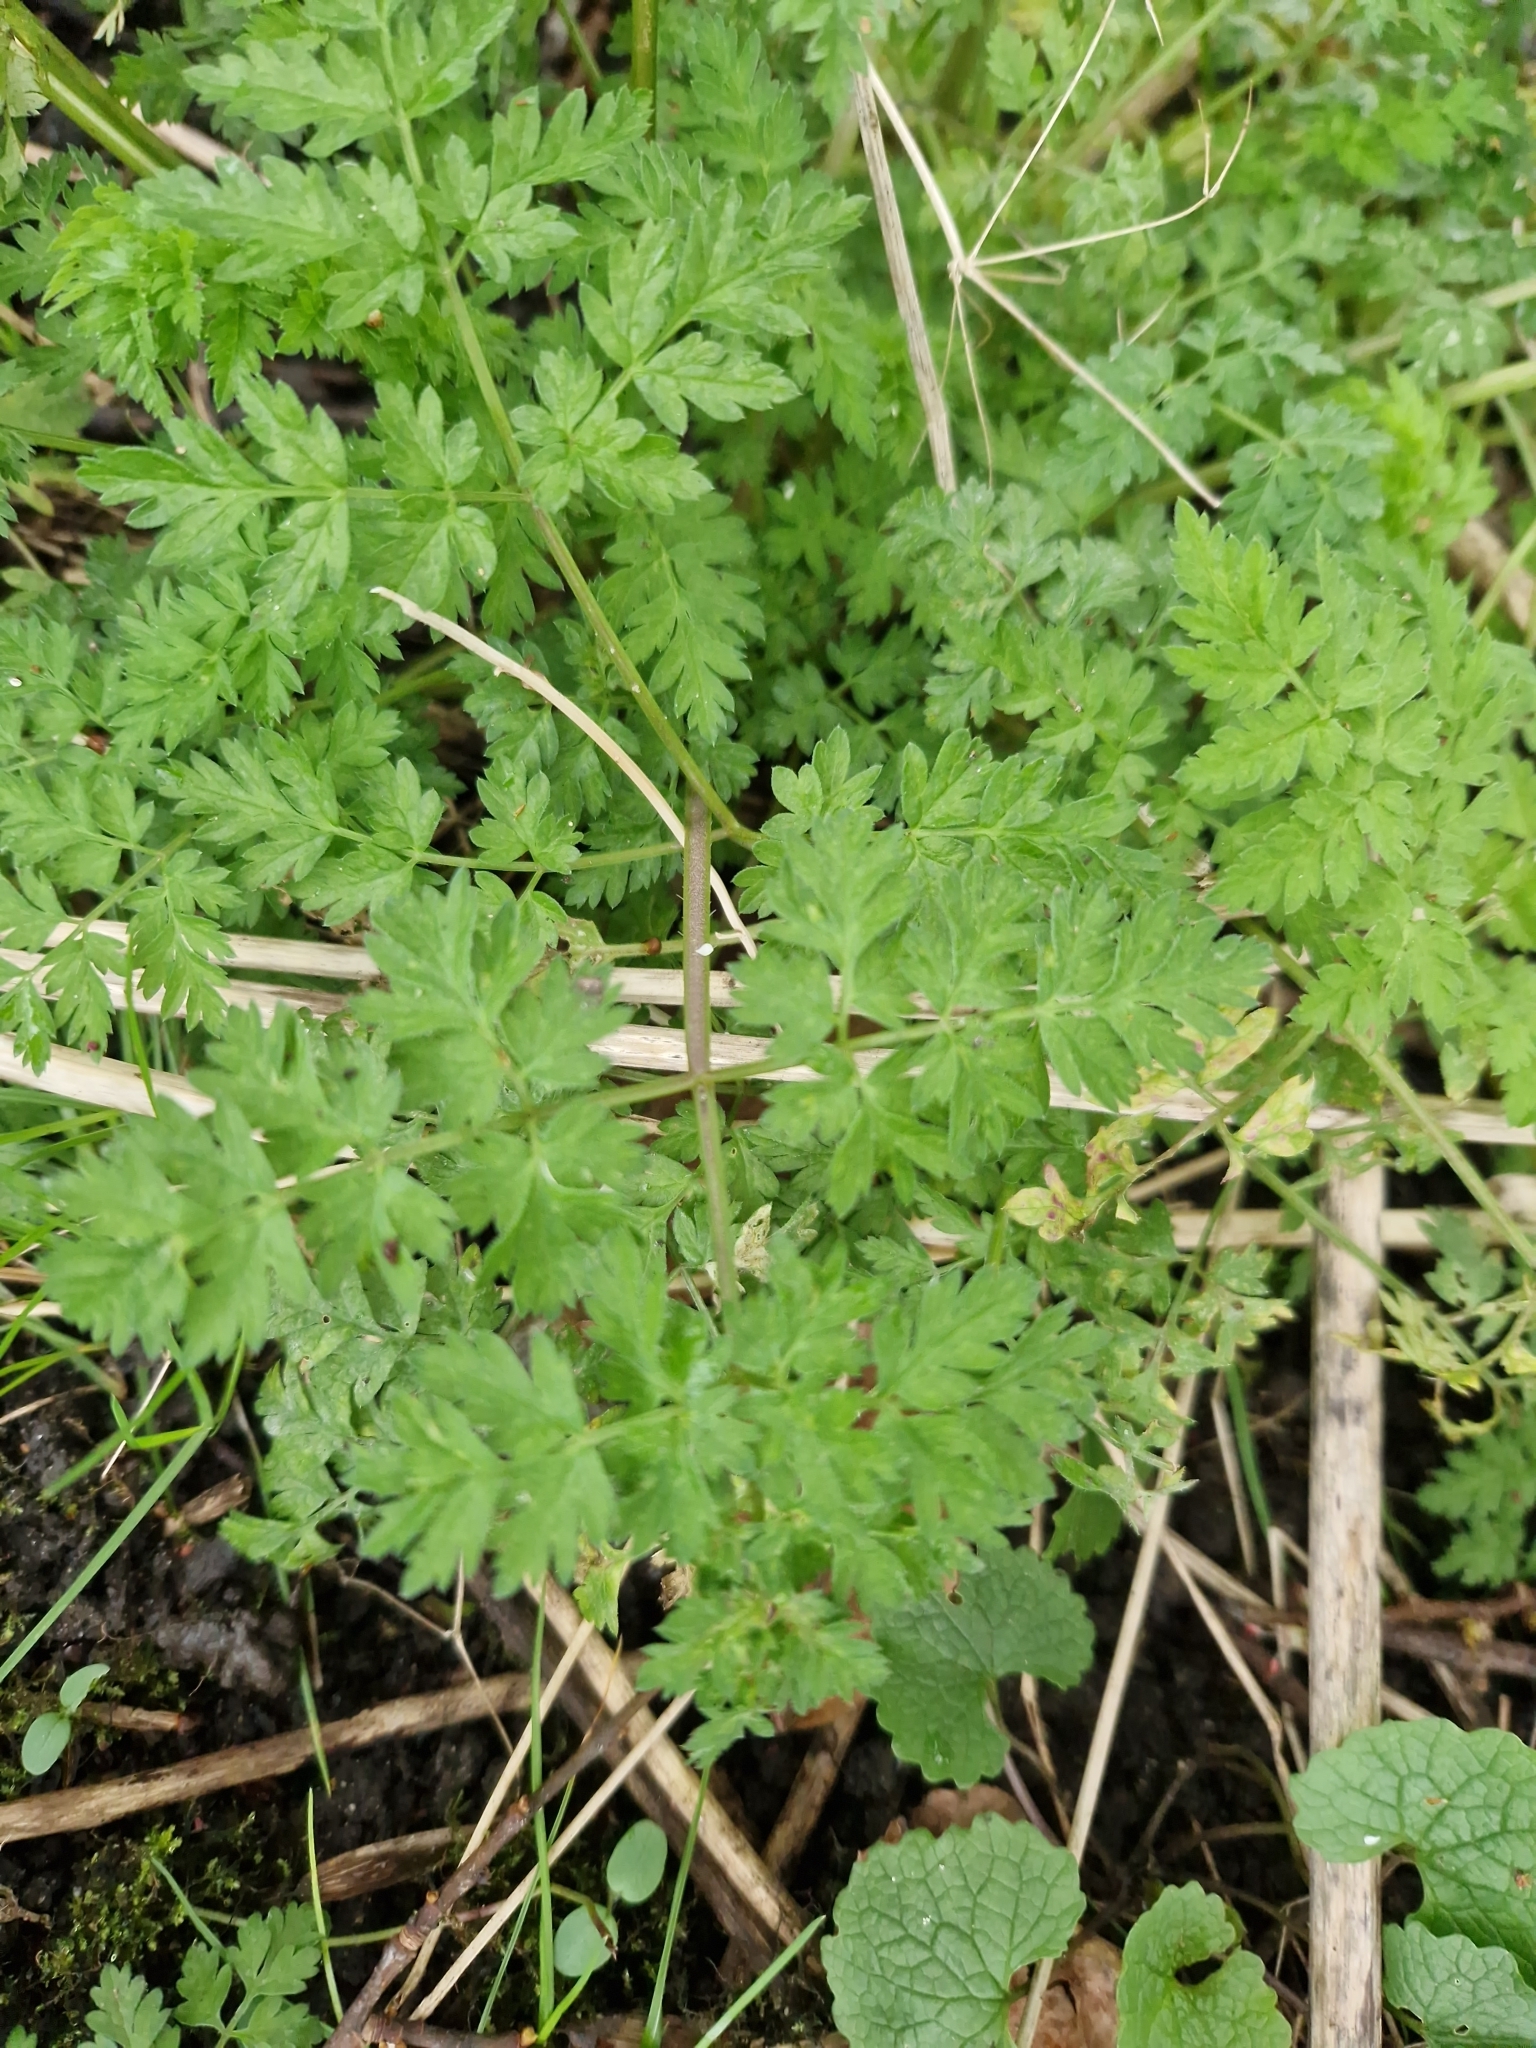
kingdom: Plantae
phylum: Tracheophyta
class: Magnoliopsida
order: Apiales
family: Apiaceae
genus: Anthriscus
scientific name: Anthriscus sylvestris
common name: Cow parsley
